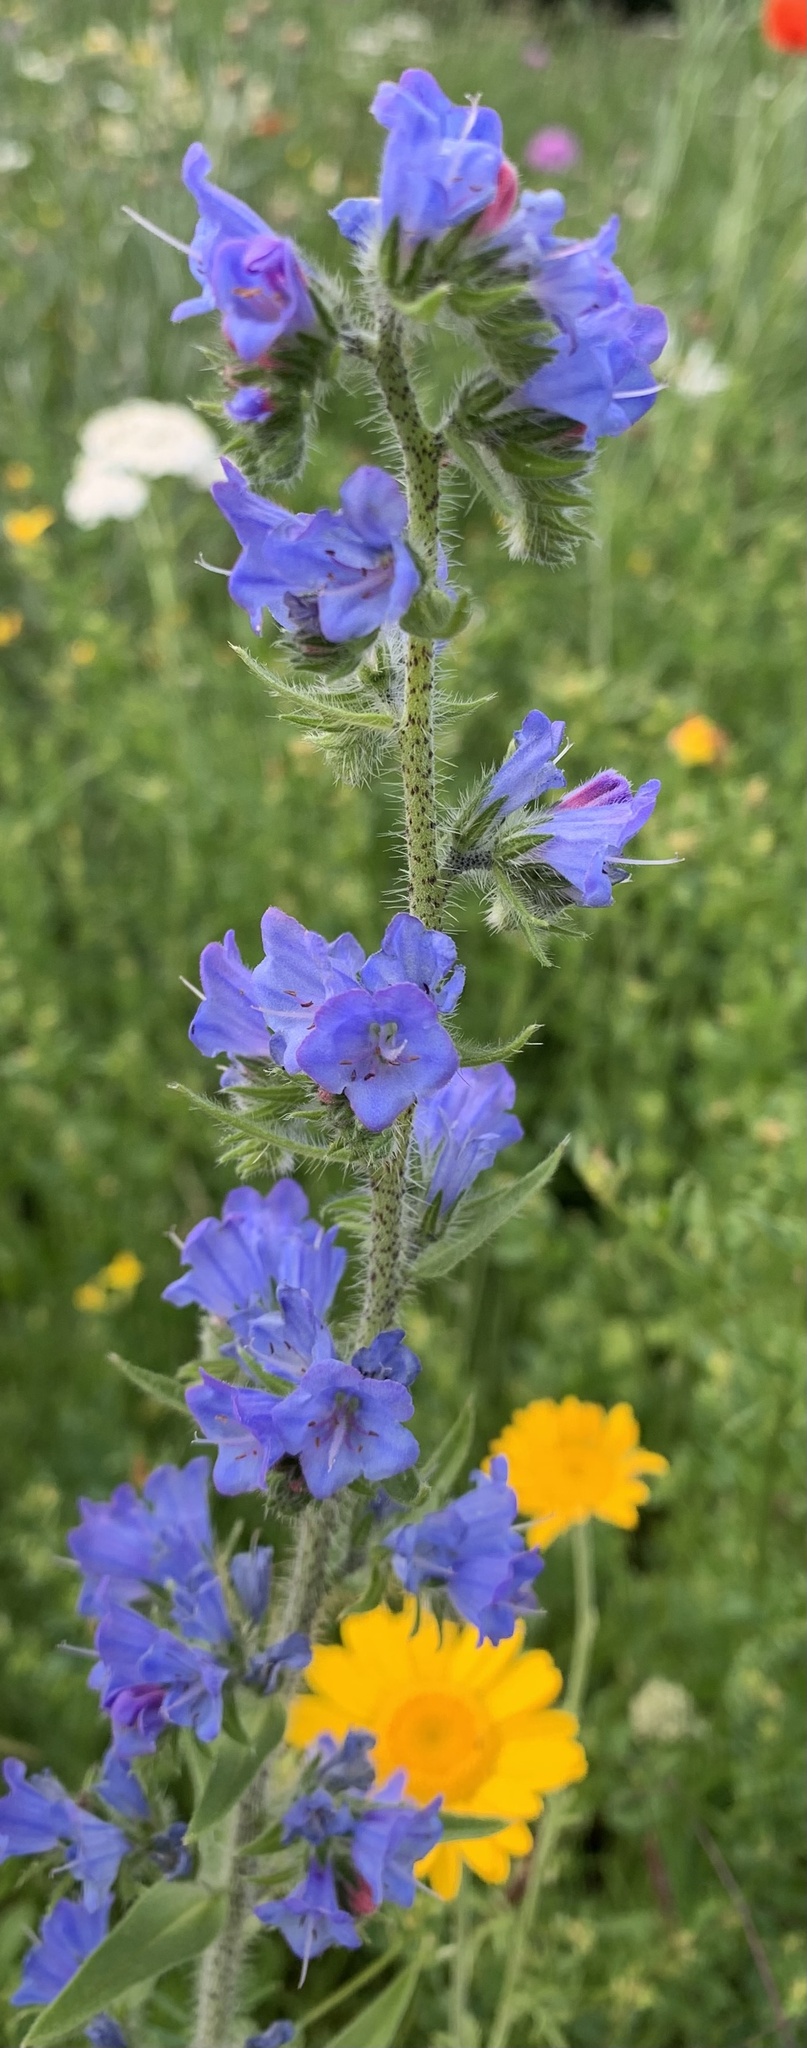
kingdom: Plantae
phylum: Tracheophyta
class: Magnoliopsida
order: Boraginales
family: Boraginaceae
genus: Echium
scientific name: Echium vulgare
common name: Common viper's bugloss
